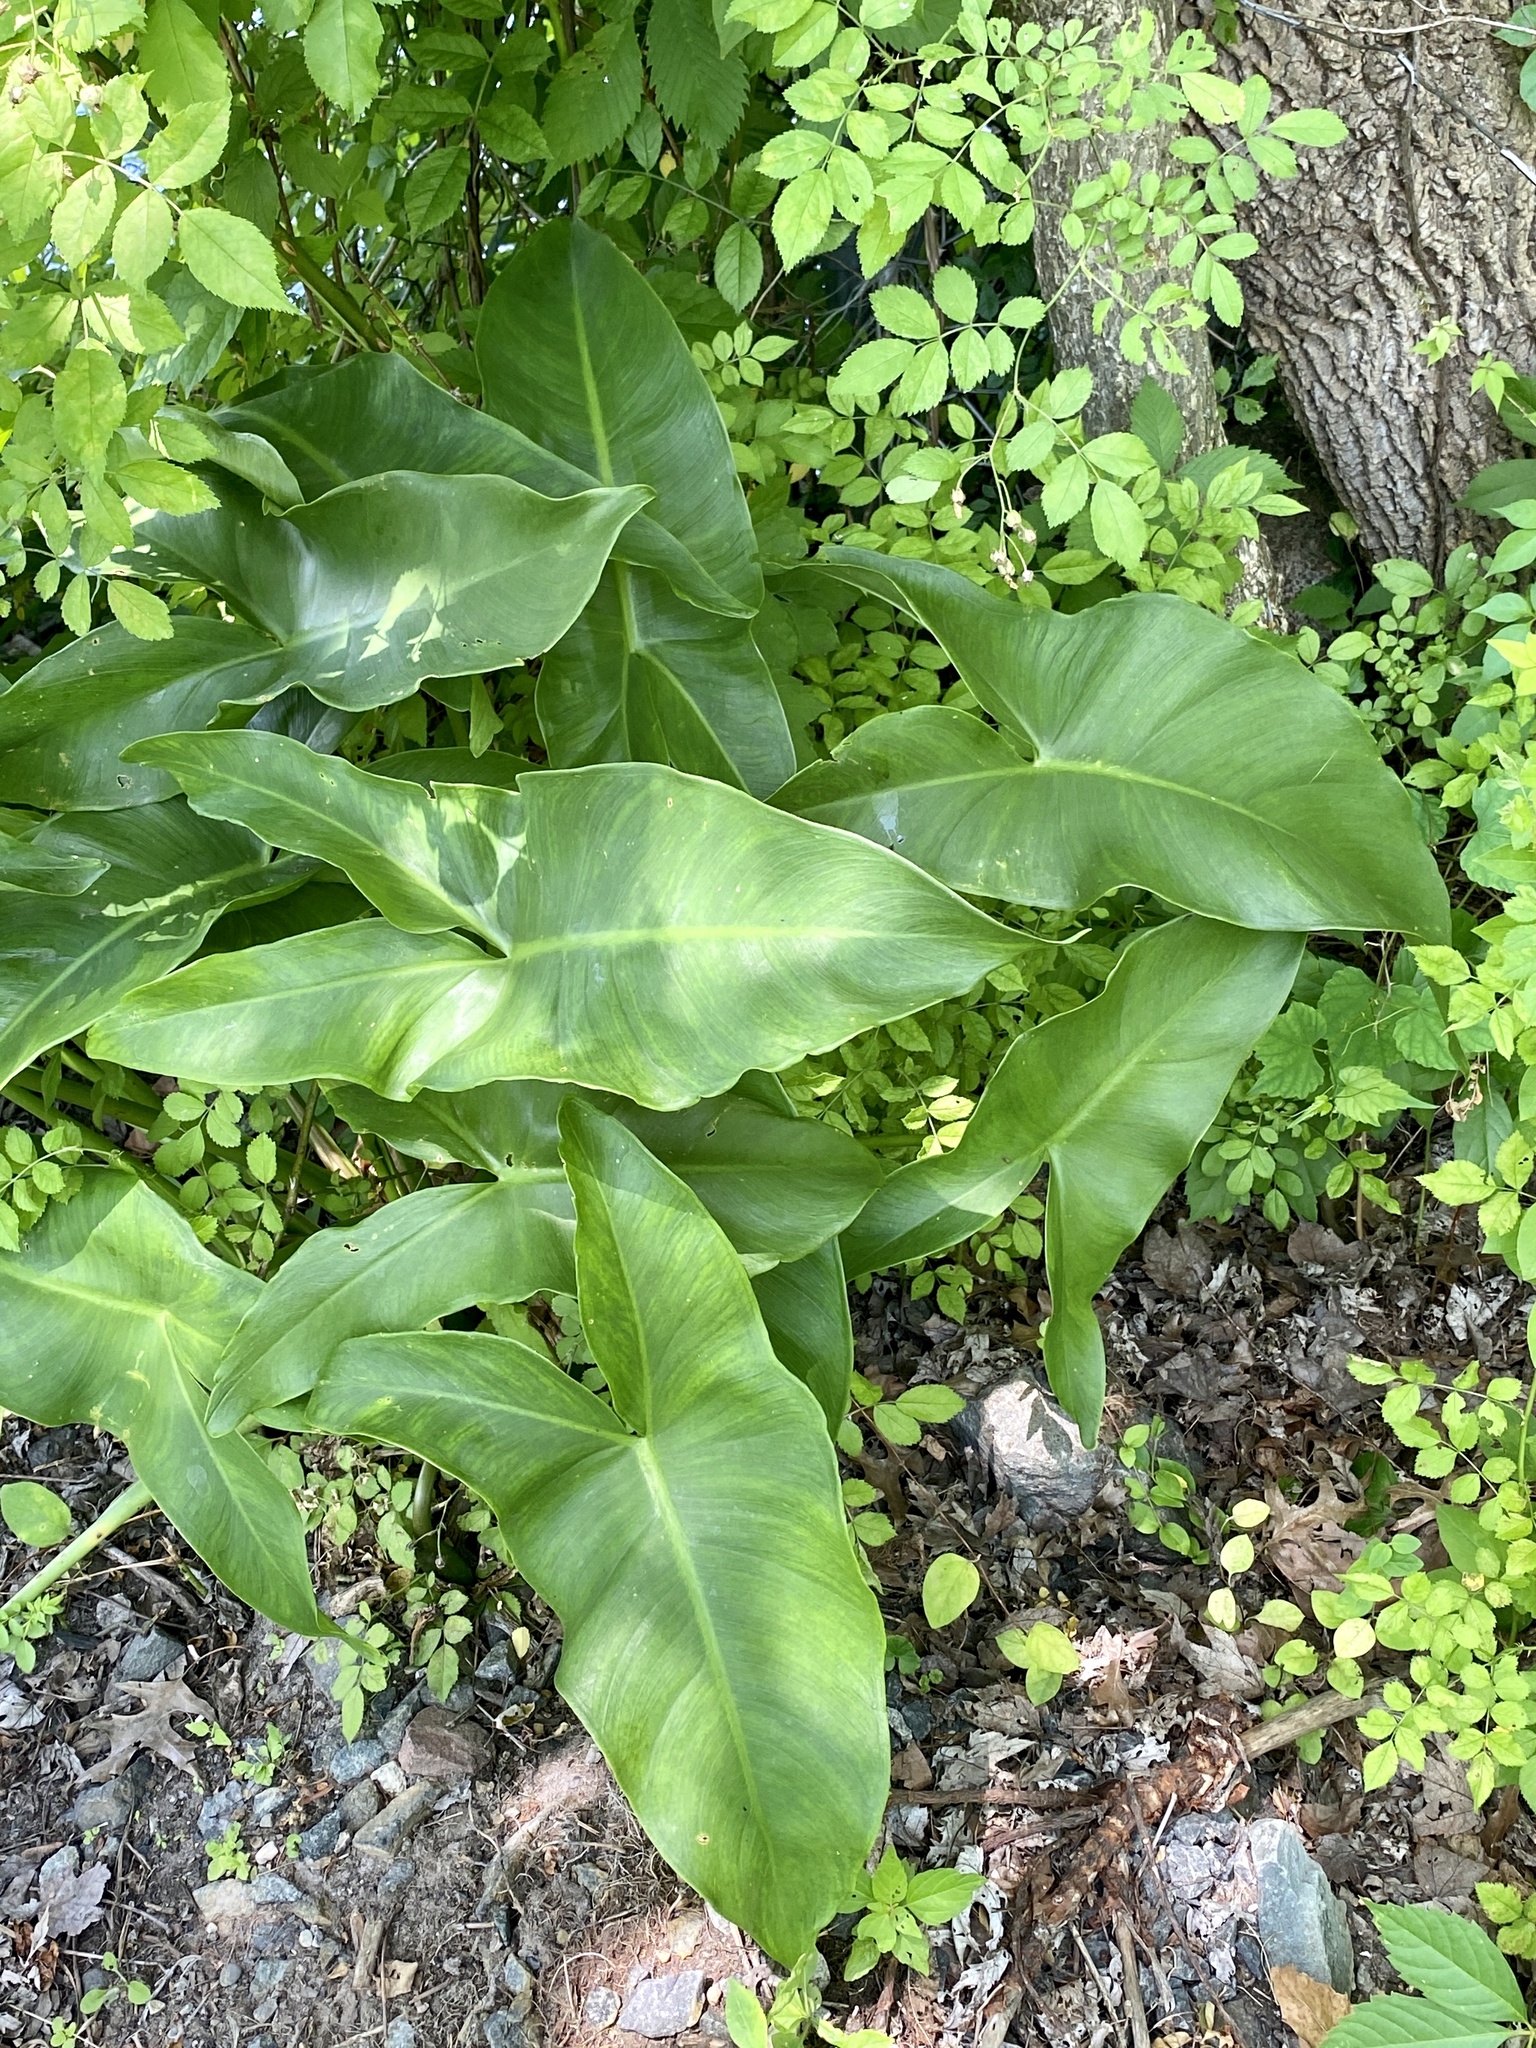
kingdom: Plantae
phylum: Tracheophyta
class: Liliopsida
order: Alismatales
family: Araceae
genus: Peltandra
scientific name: Peltandra virginica
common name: Arrow arum
